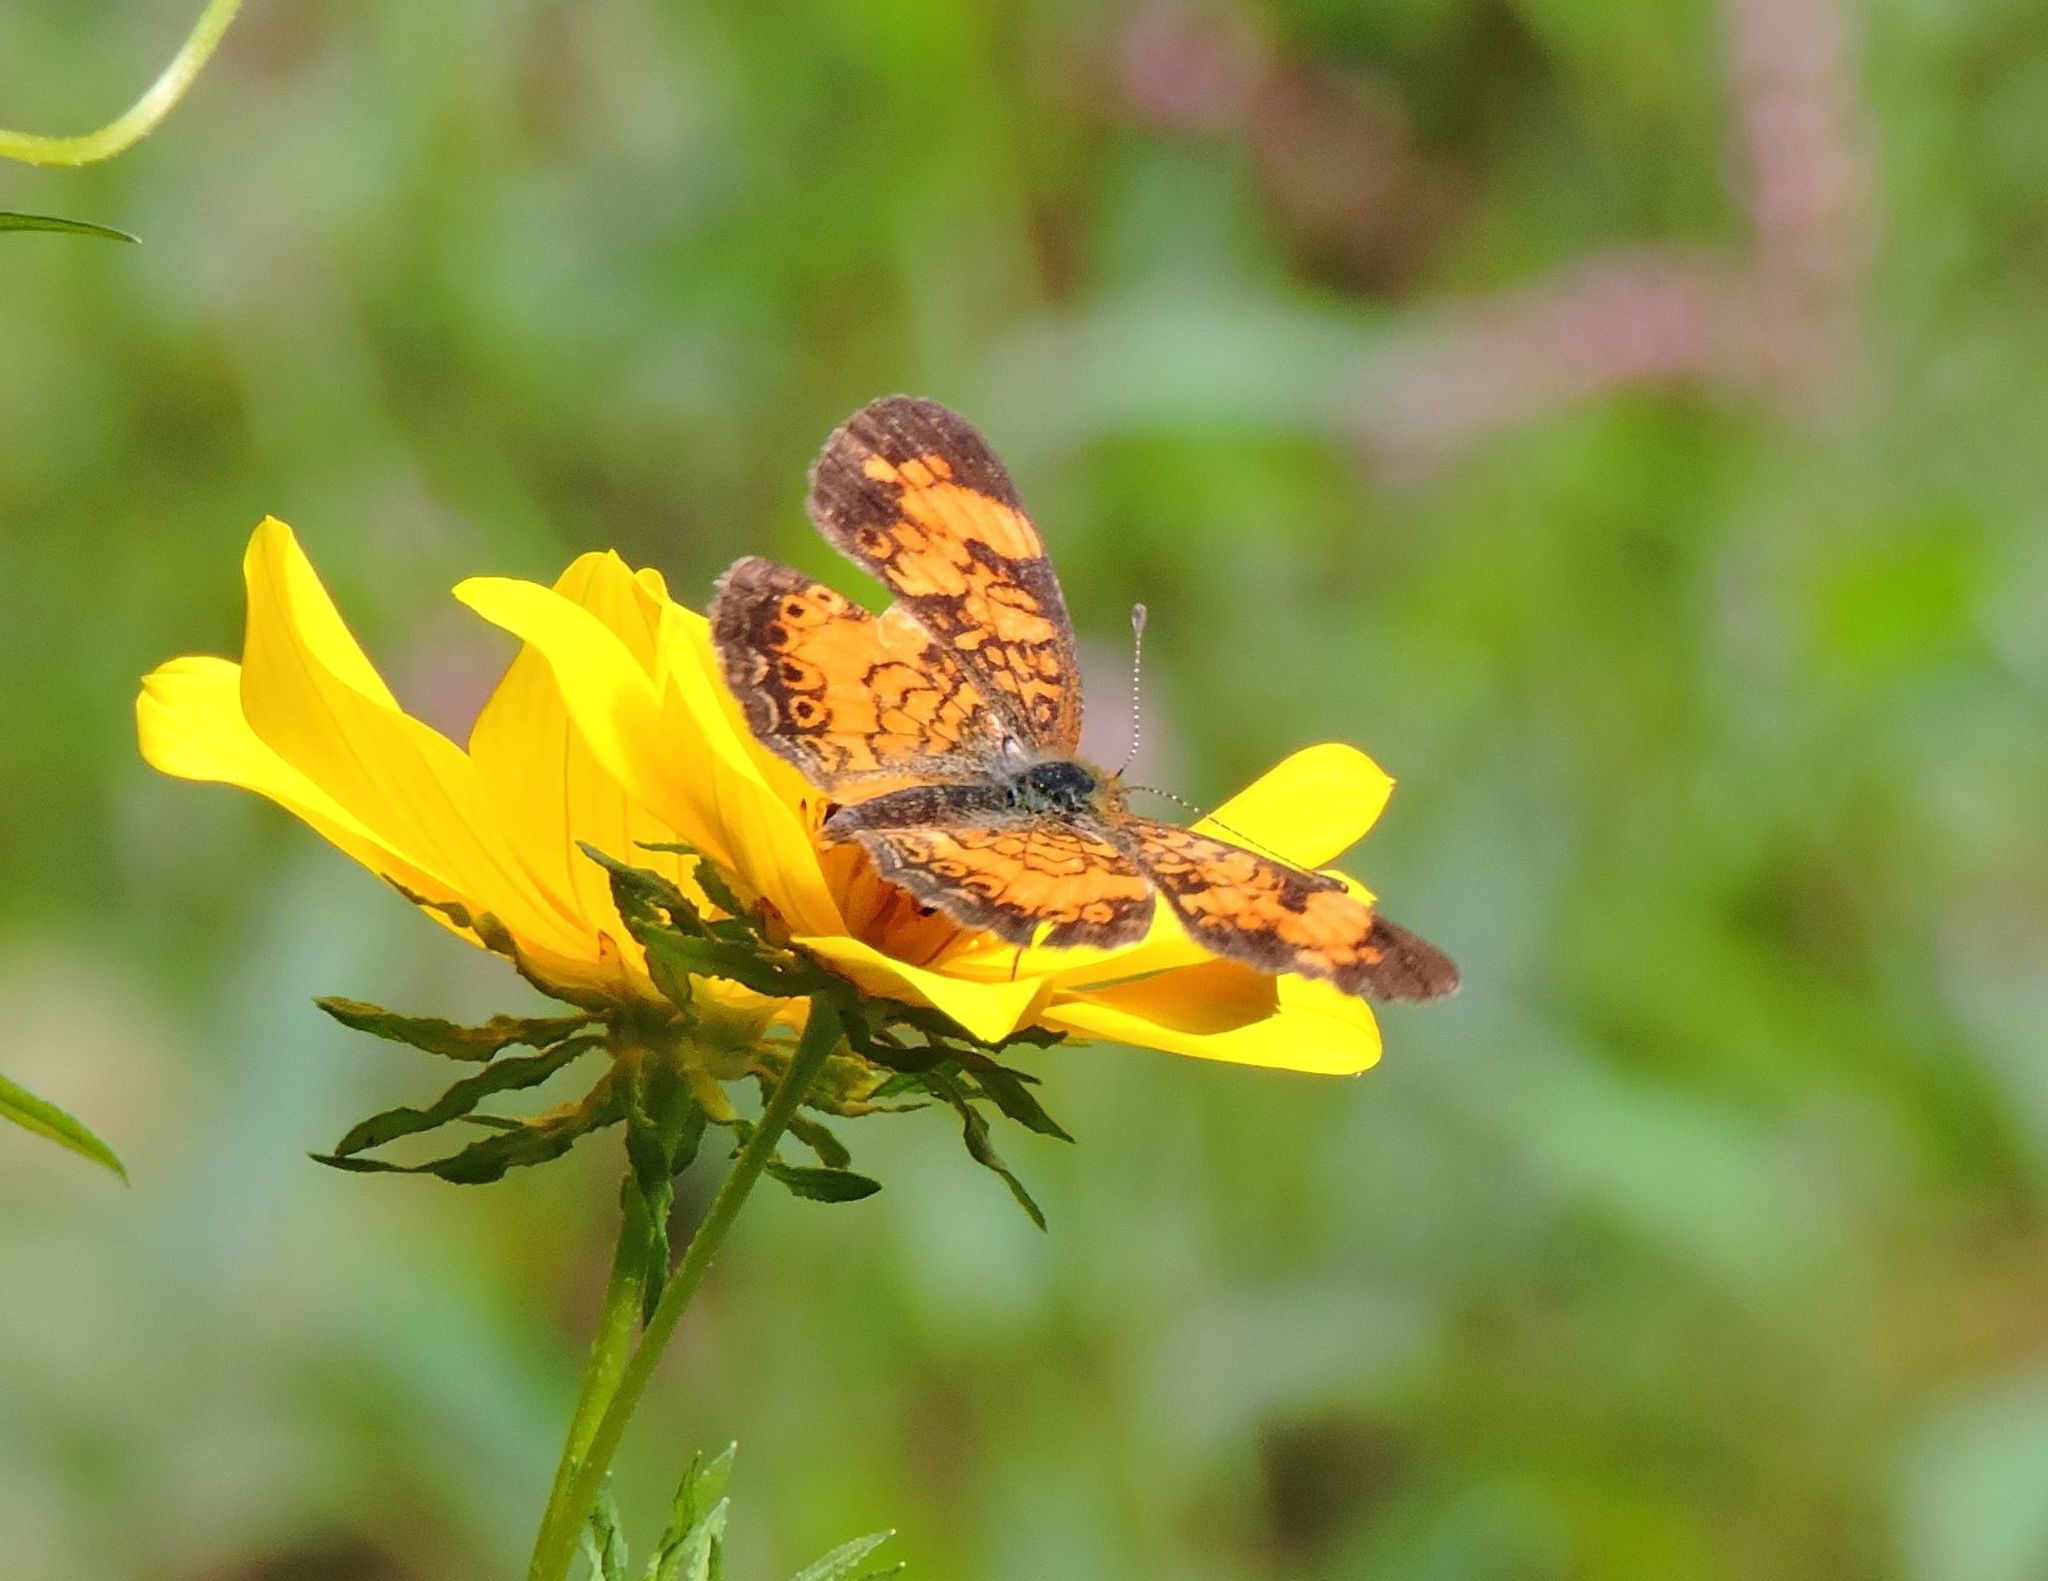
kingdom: Animalia
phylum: Arthropoda
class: Insecta
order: Lepidoptera
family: Nymphalidae
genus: Phyciodes
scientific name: Phyciodes tharos
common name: Pearl crescent
